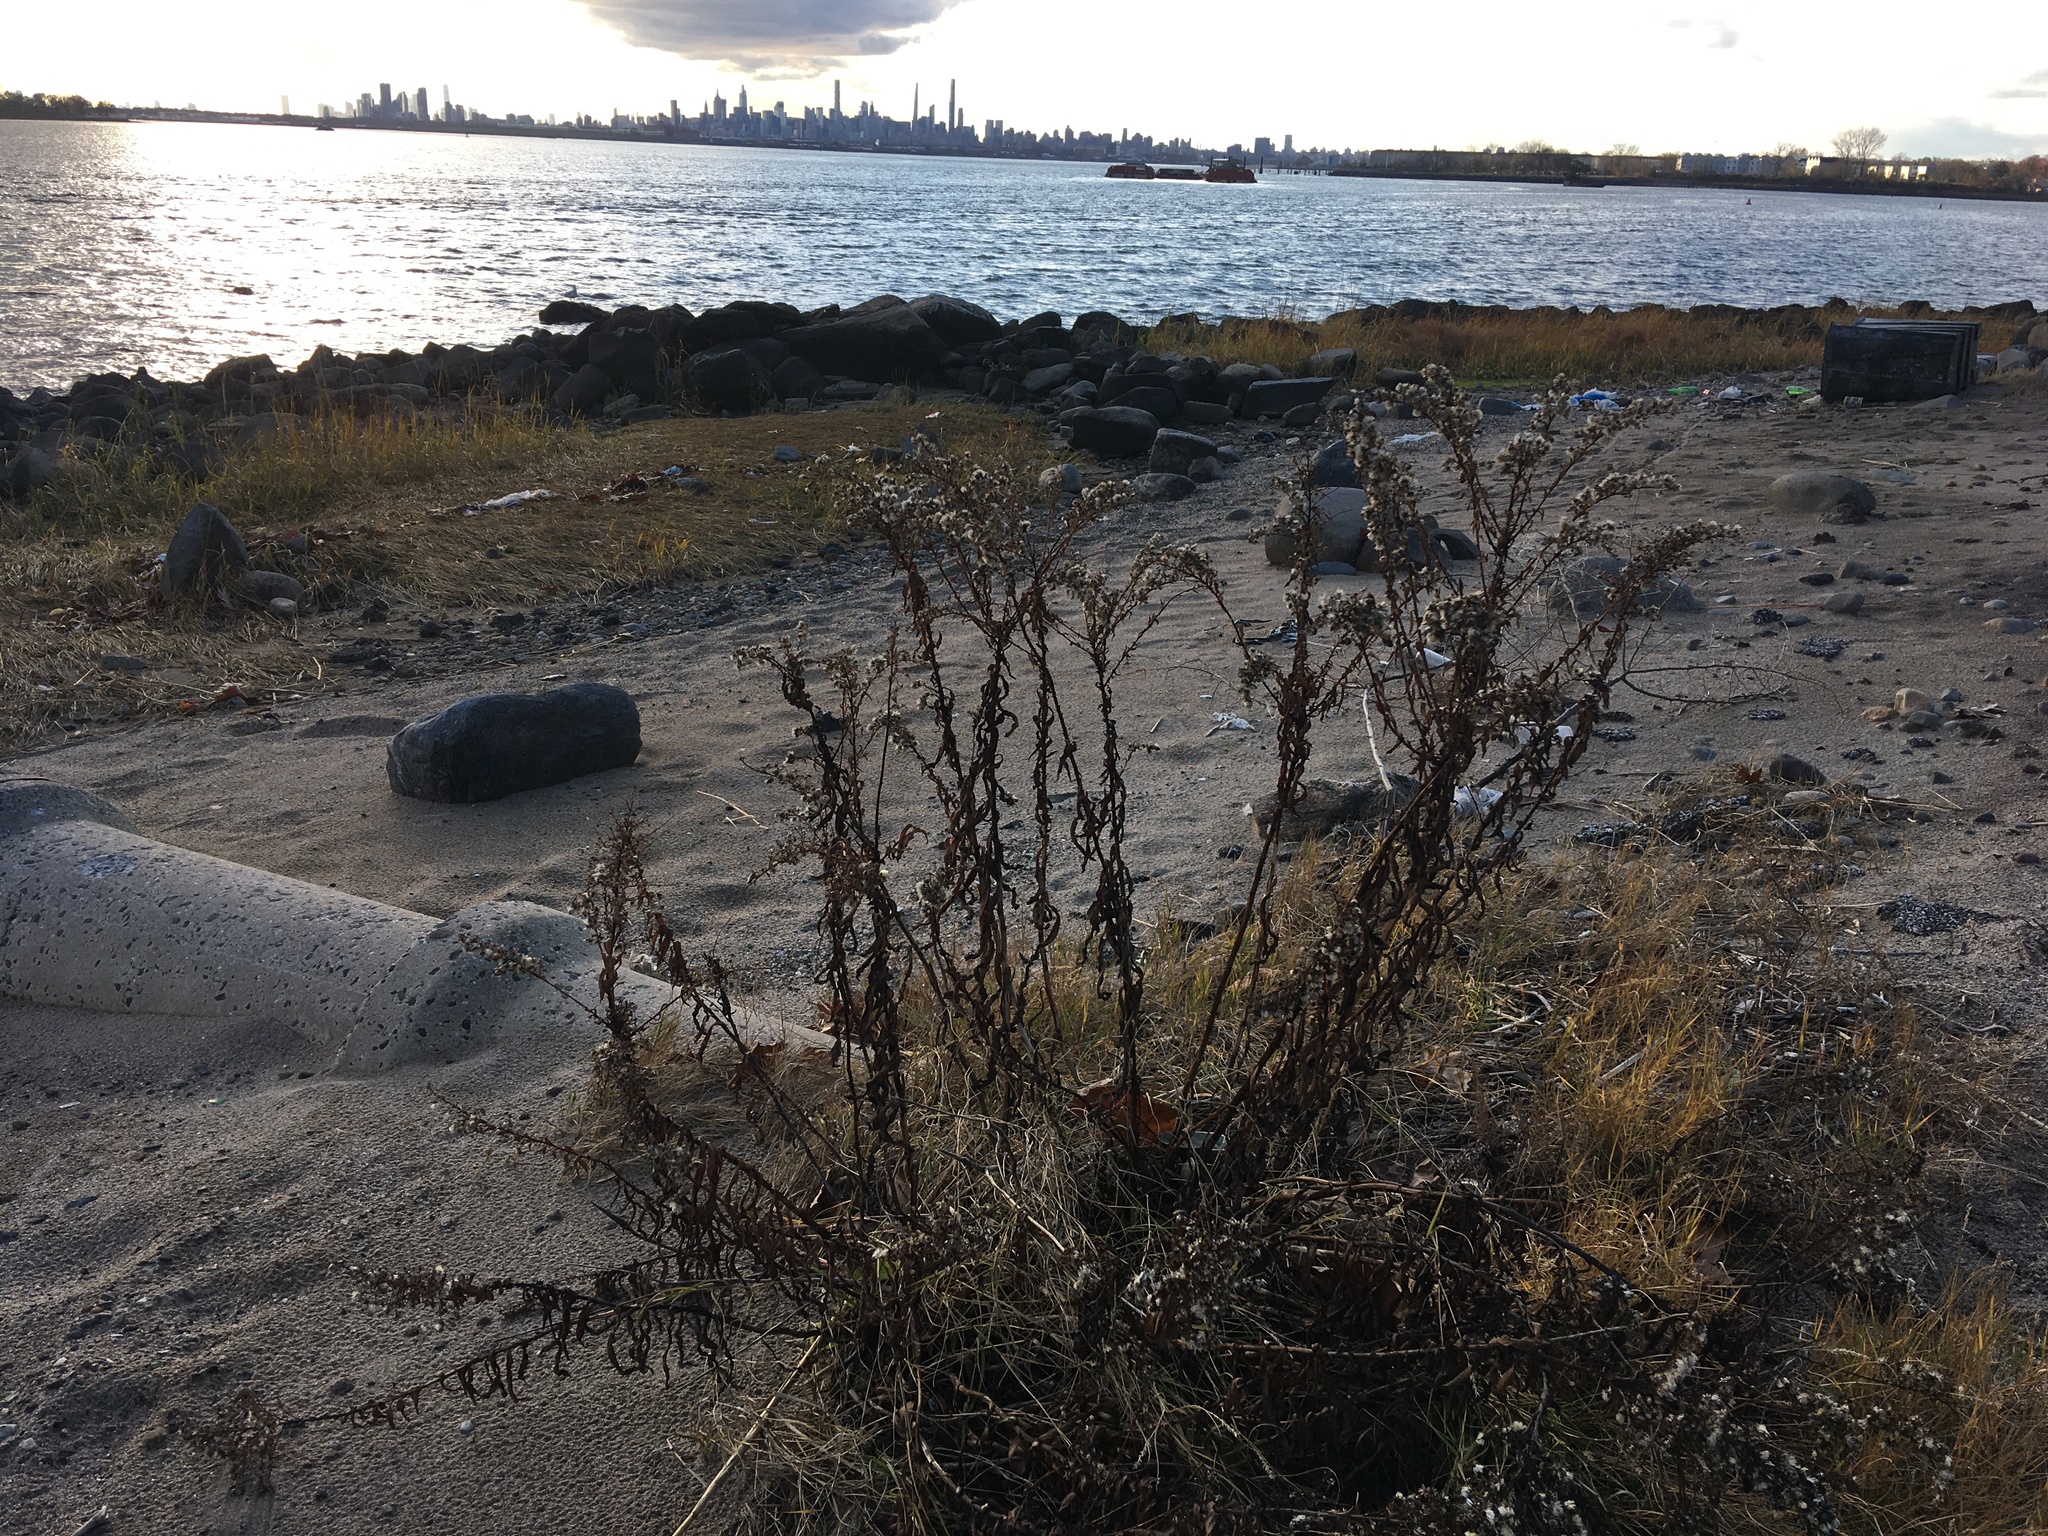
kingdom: Plantae
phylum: Tracheophyta
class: Magnoliopsida
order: Asterales
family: Asteraceae
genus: Solidago
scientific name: Solidago sempervirens
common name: Salt-marsh goldenrod
